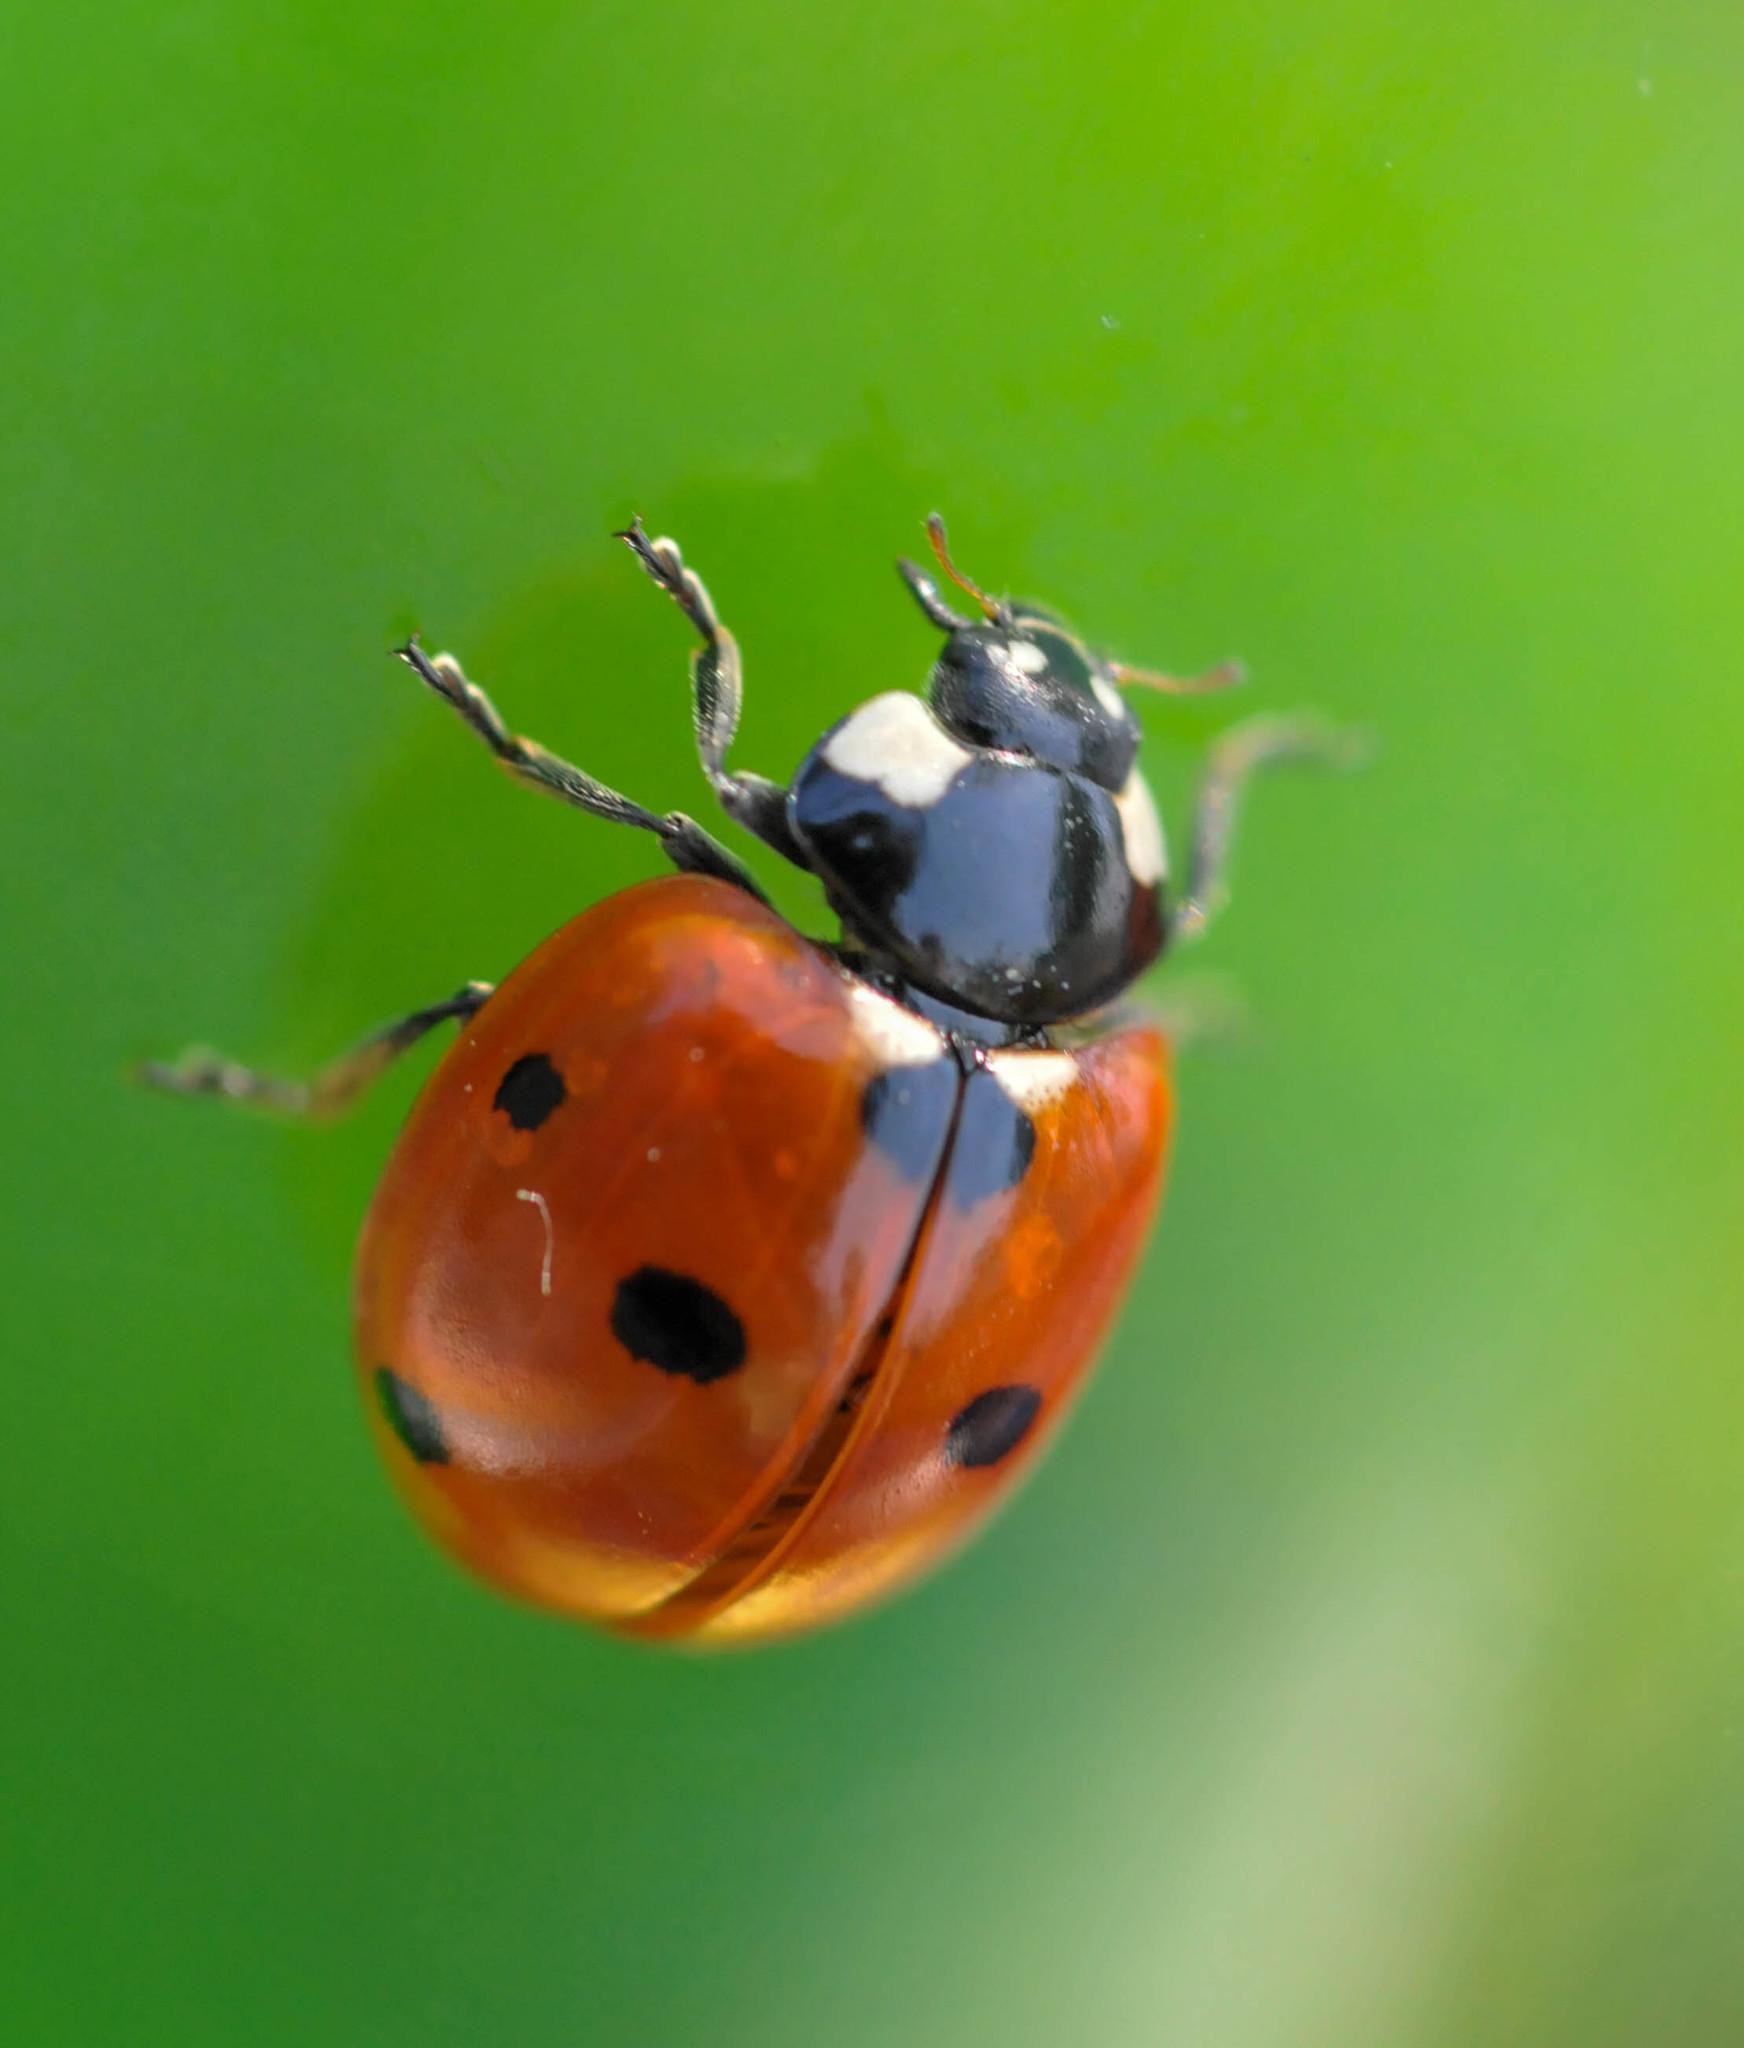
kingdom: Animalia
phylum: Arthropoda
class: Insecta
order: Coleoptera
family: Coccinellidae
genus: Coccinella
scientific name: Coccinella septempunctata
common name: Sevenspotted lady beetle
